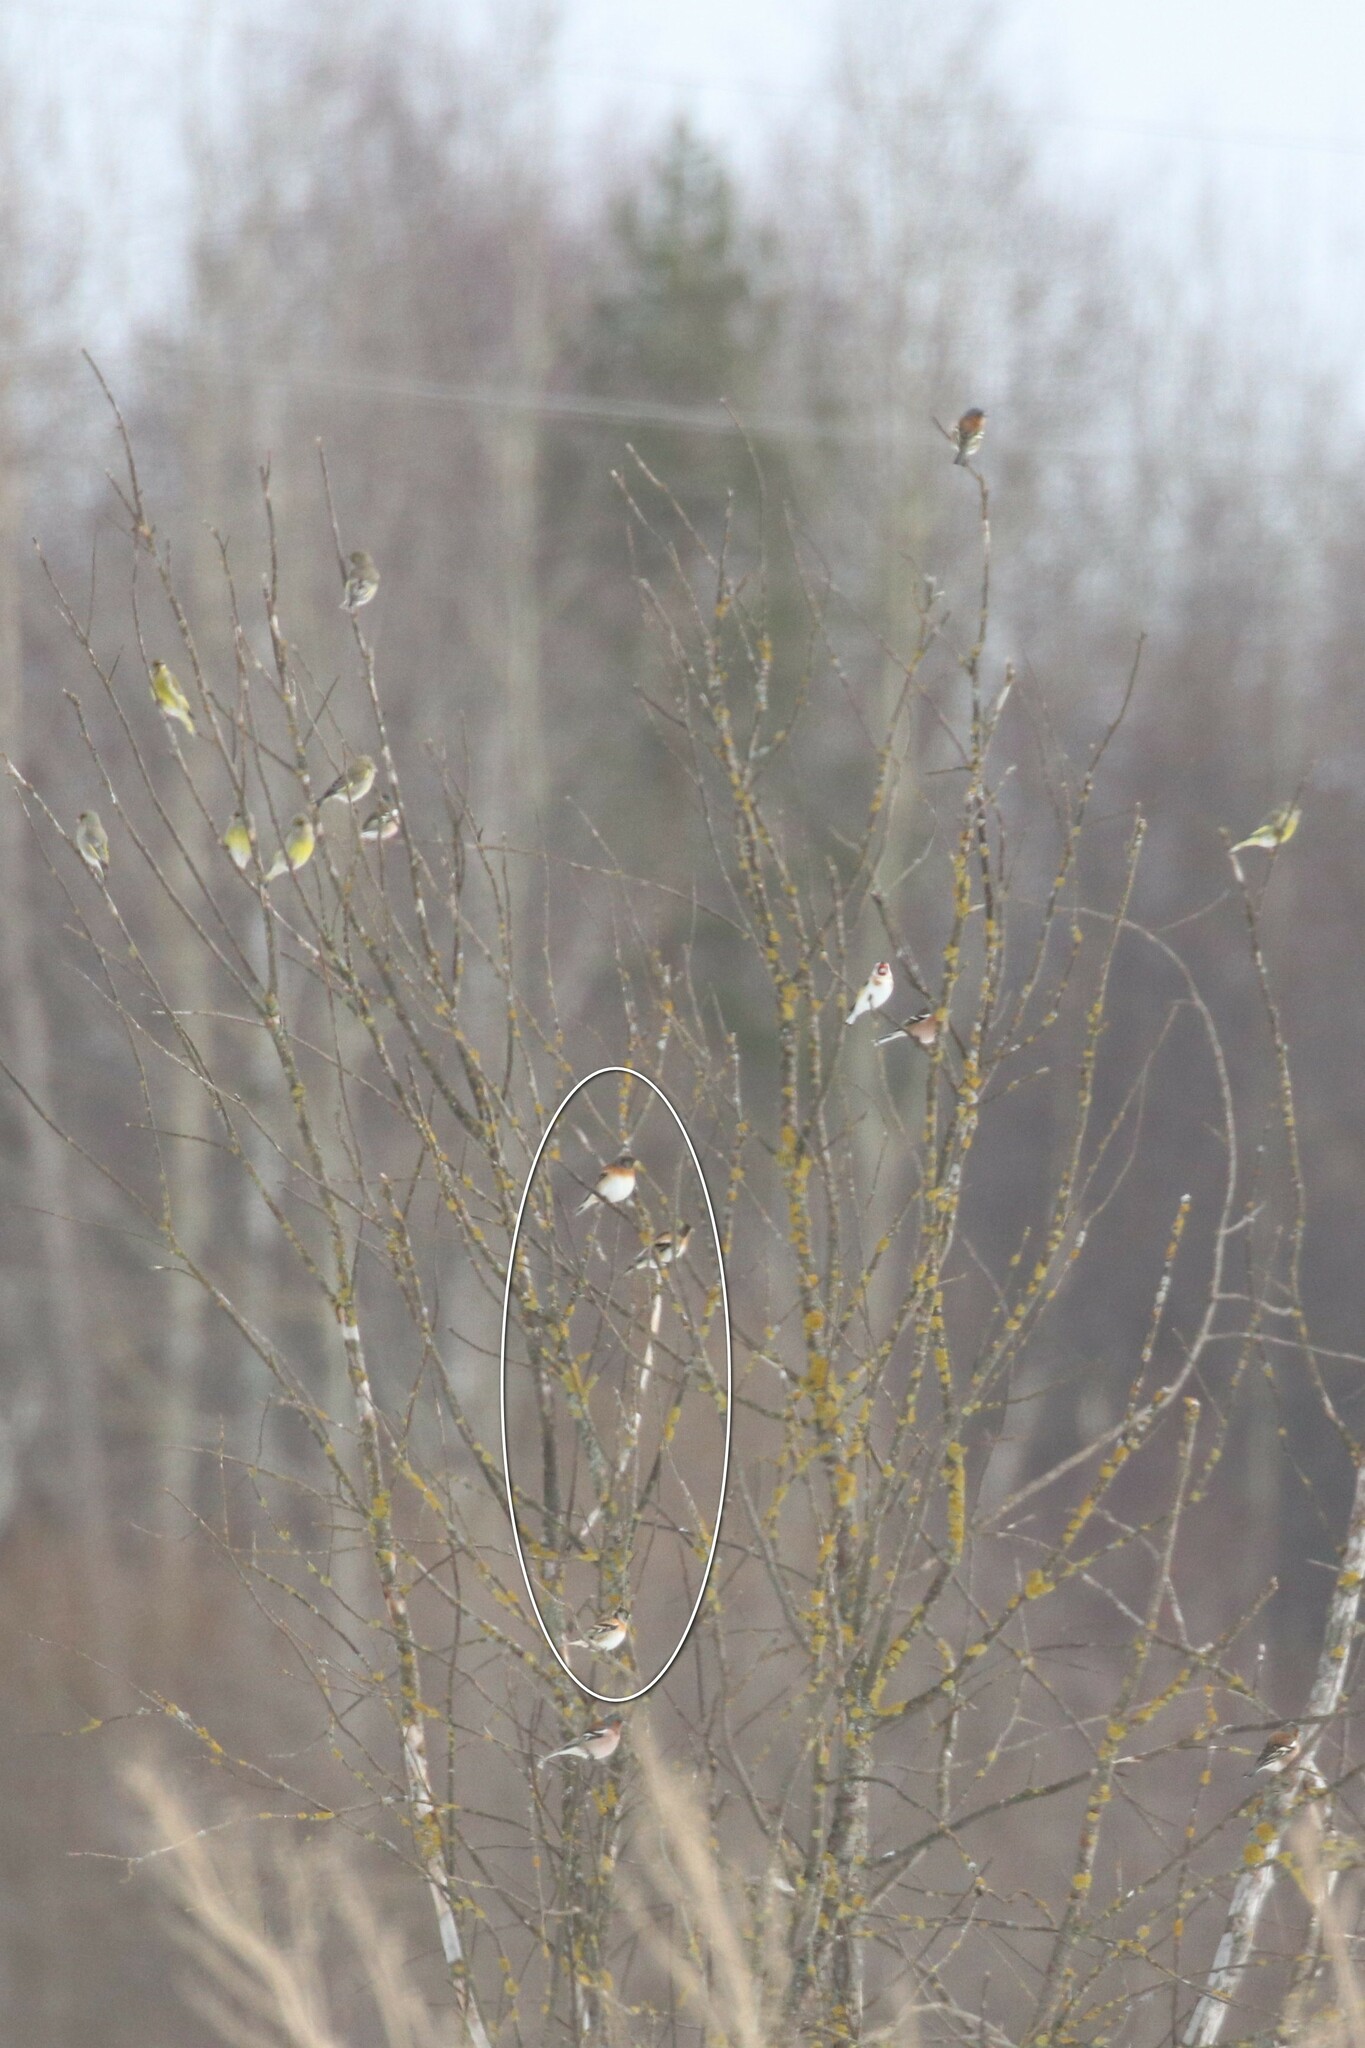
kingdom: Animalia
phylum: Chordata
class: Aves
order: Passeriformes
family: Fringillidae
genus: Fringilla
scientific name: Fringilla montifringilla
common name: Brambling
